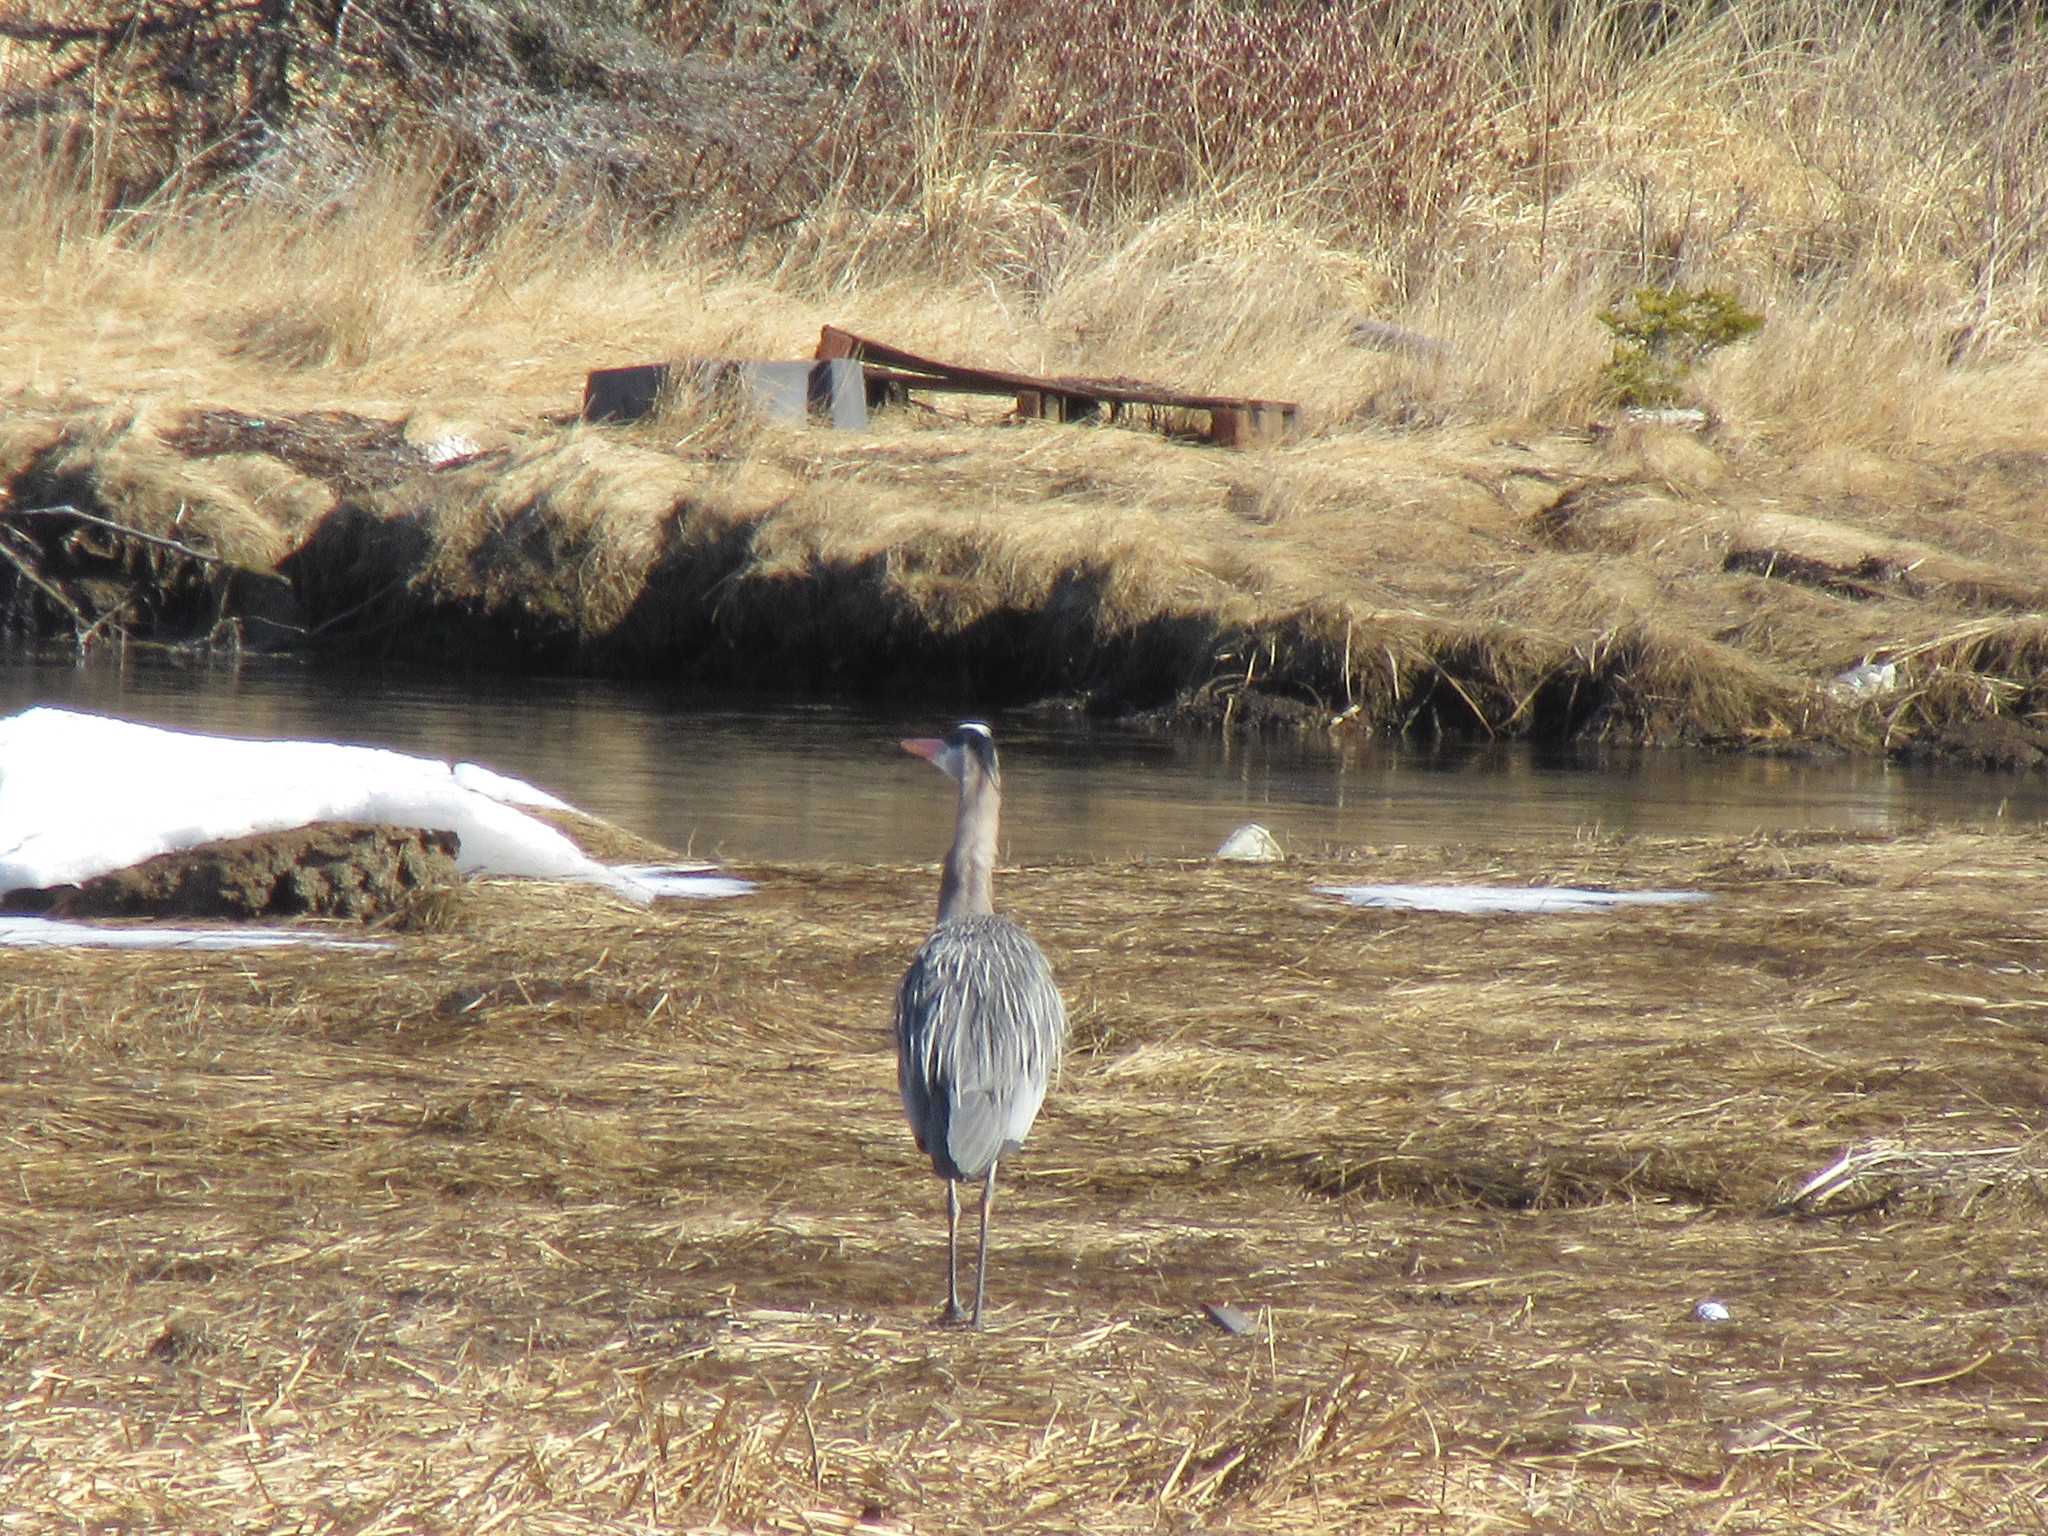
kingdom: Animalia
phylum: Chordata
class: Aves
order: Pelecaniformes
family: Ardeidae
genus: Ardea
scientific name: Ardea herodias
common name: Great blue heron
